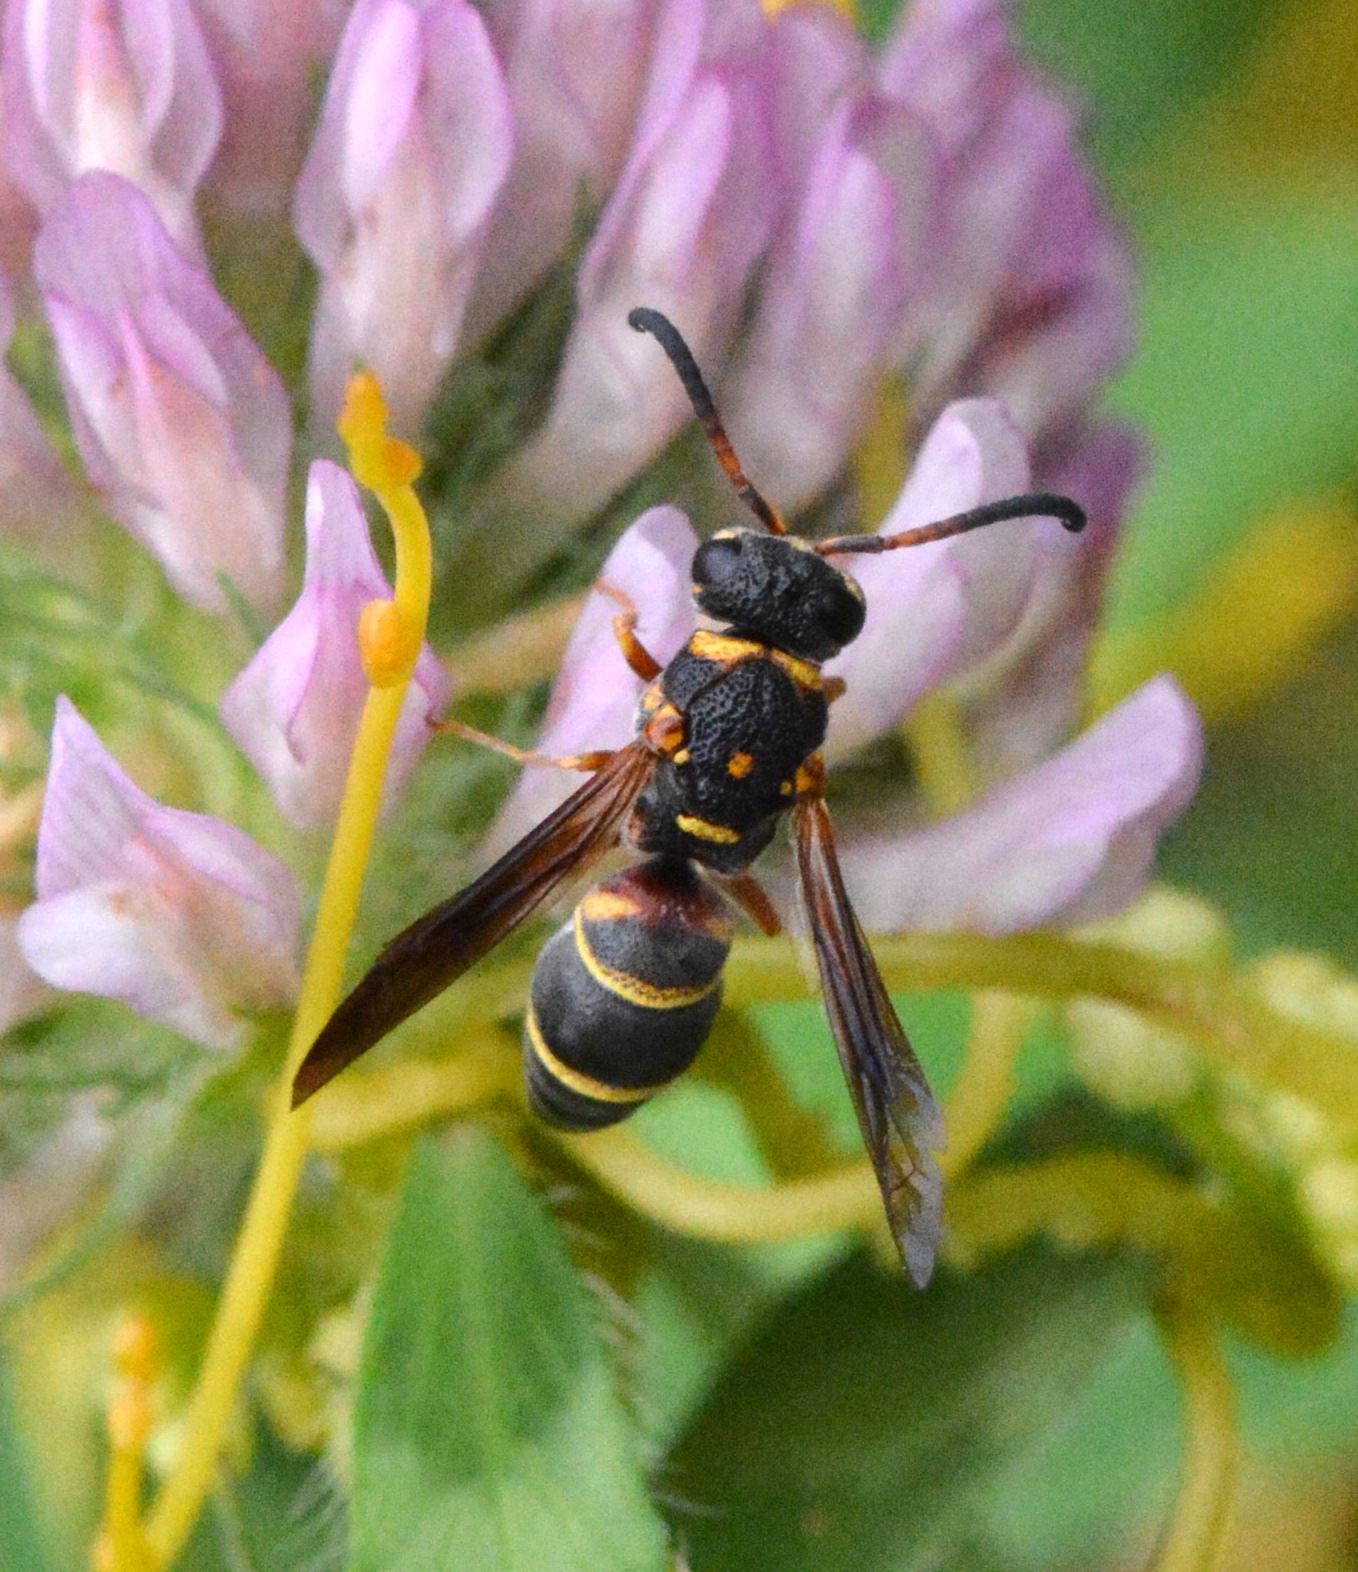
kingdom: Animalia
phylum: Arthropoda
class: Insecta
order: Hymenoptera
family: Eumenidae
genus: Parancistrocerus
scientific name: Parancistrocerus fulvipes
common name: Potter wasp
